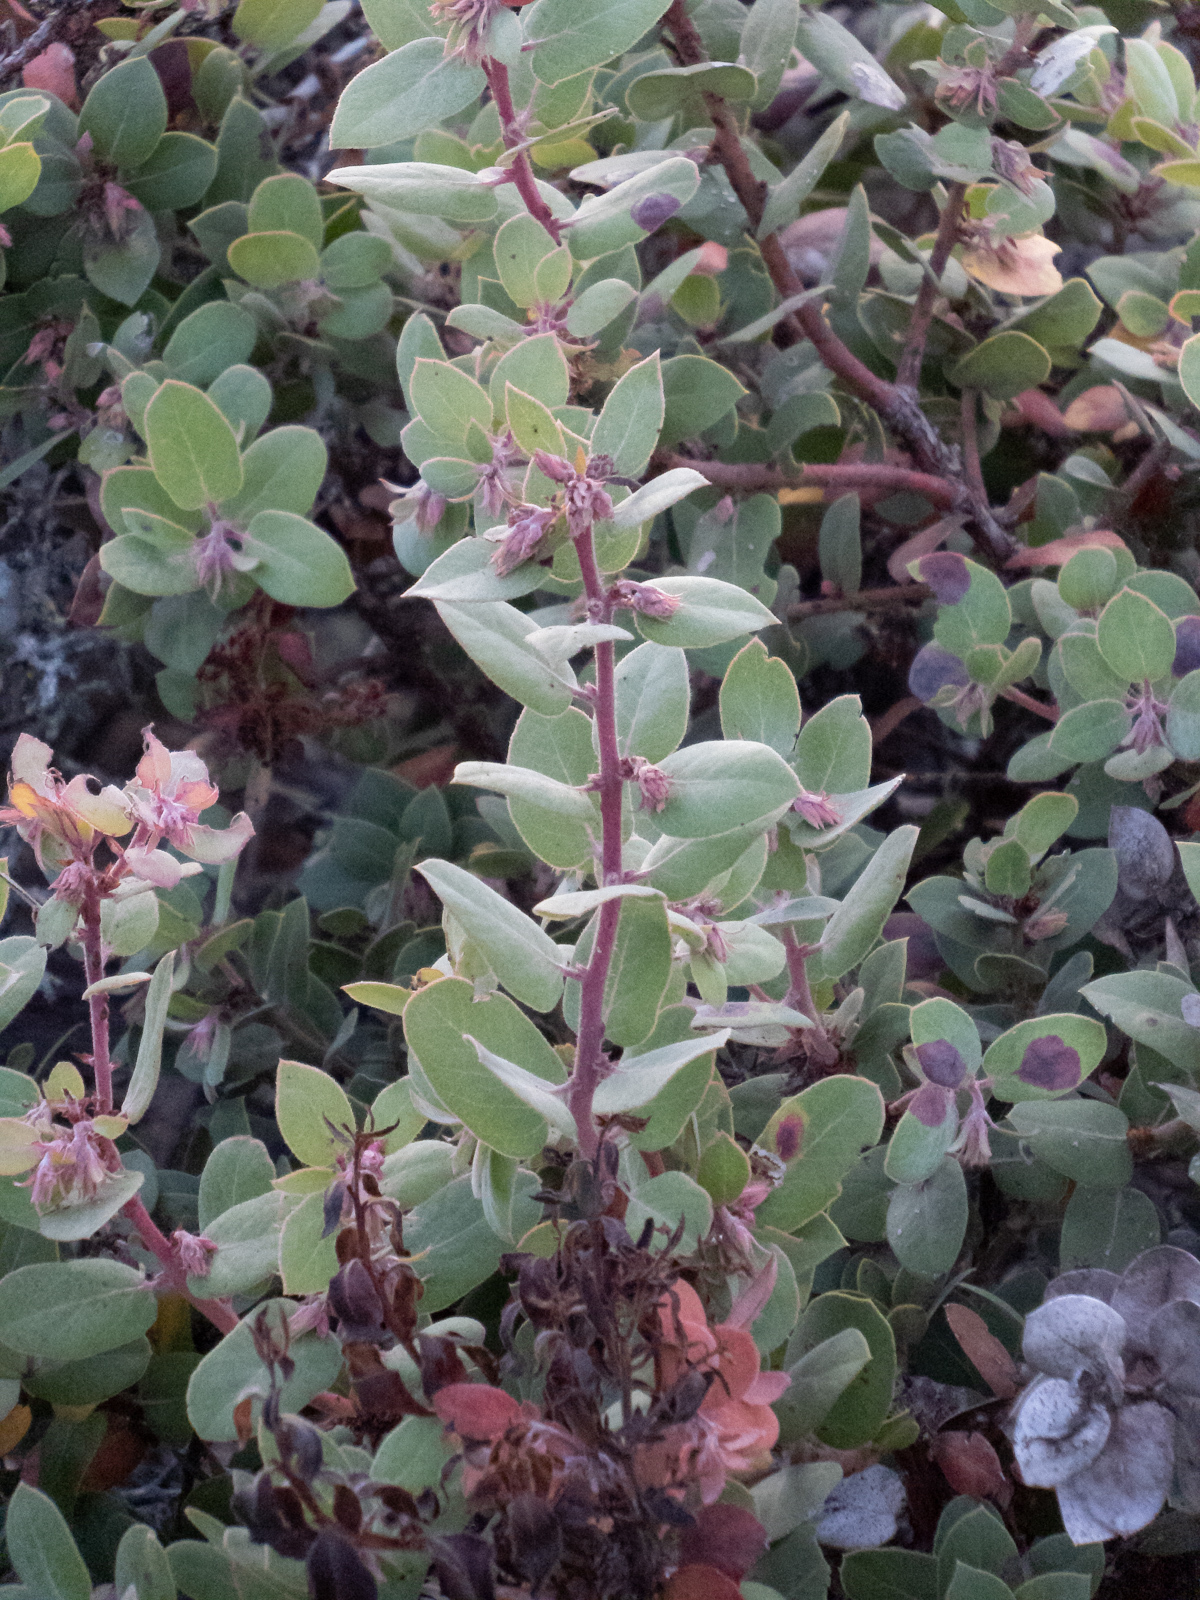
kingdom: Plantae
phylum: Tracheophyta
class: Magnoliopsida
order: Ericales
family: Ericaceae
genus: Arctostaphylos
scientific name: Arctostaphylos morroensis
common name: Morro manzanita
